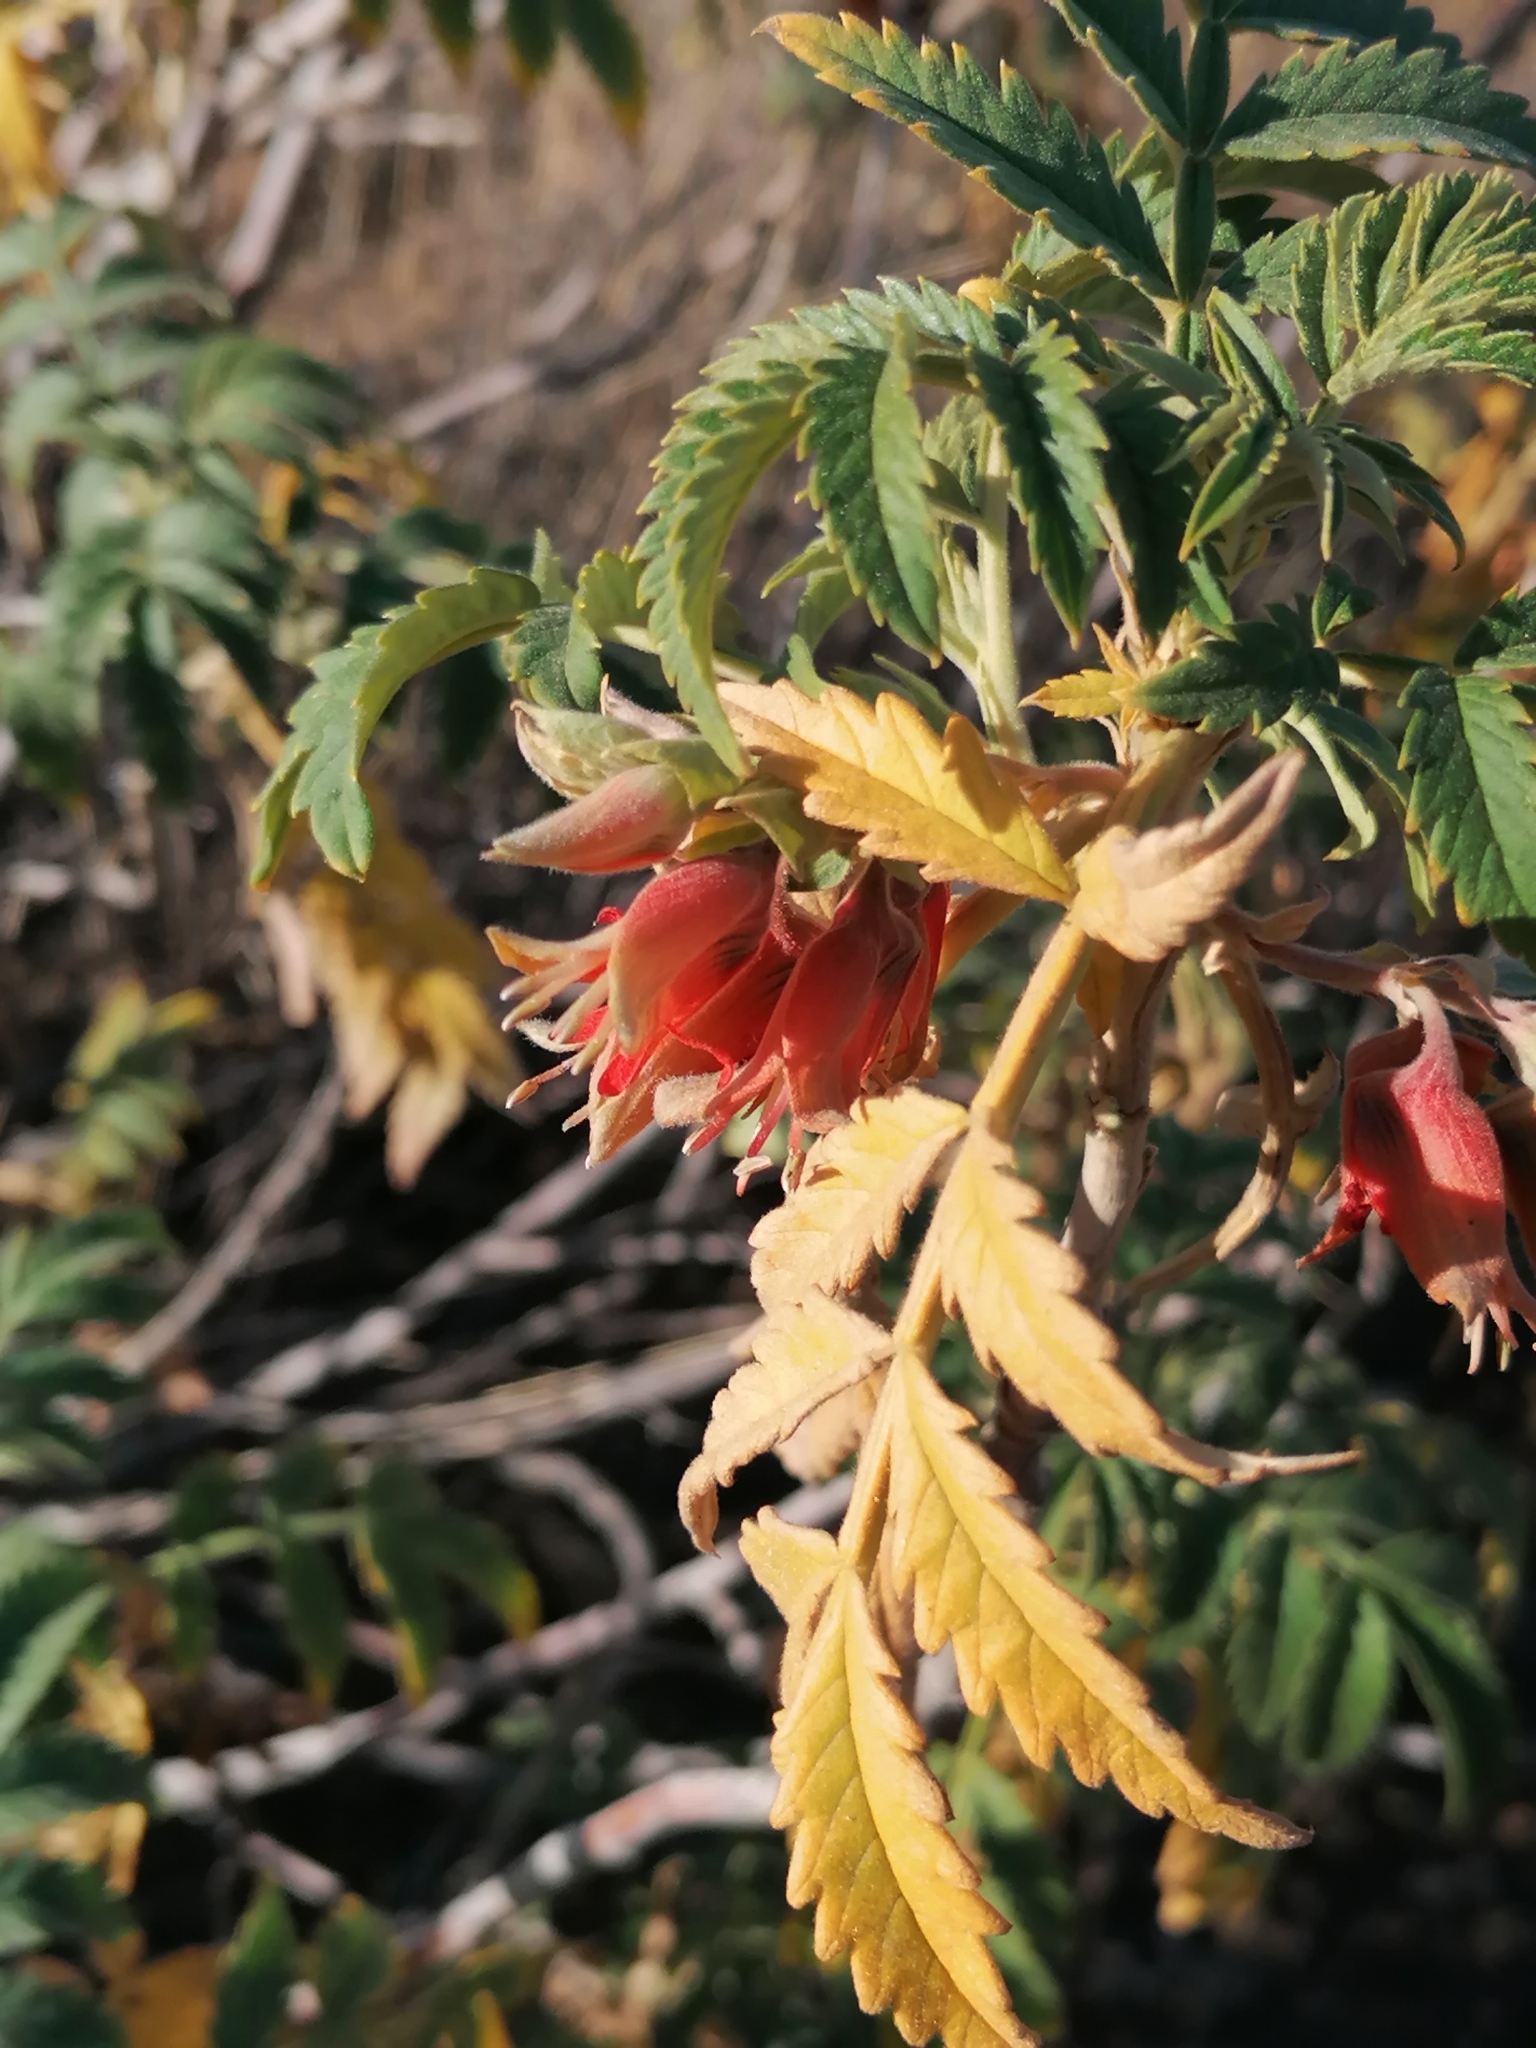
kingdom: Plantae
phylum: Tracheophyta
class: Magnoliopsida
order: Geraniales
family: Melianthaceae
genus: Melianthus
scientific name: Melianthus comosus
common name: Touch-me-not
